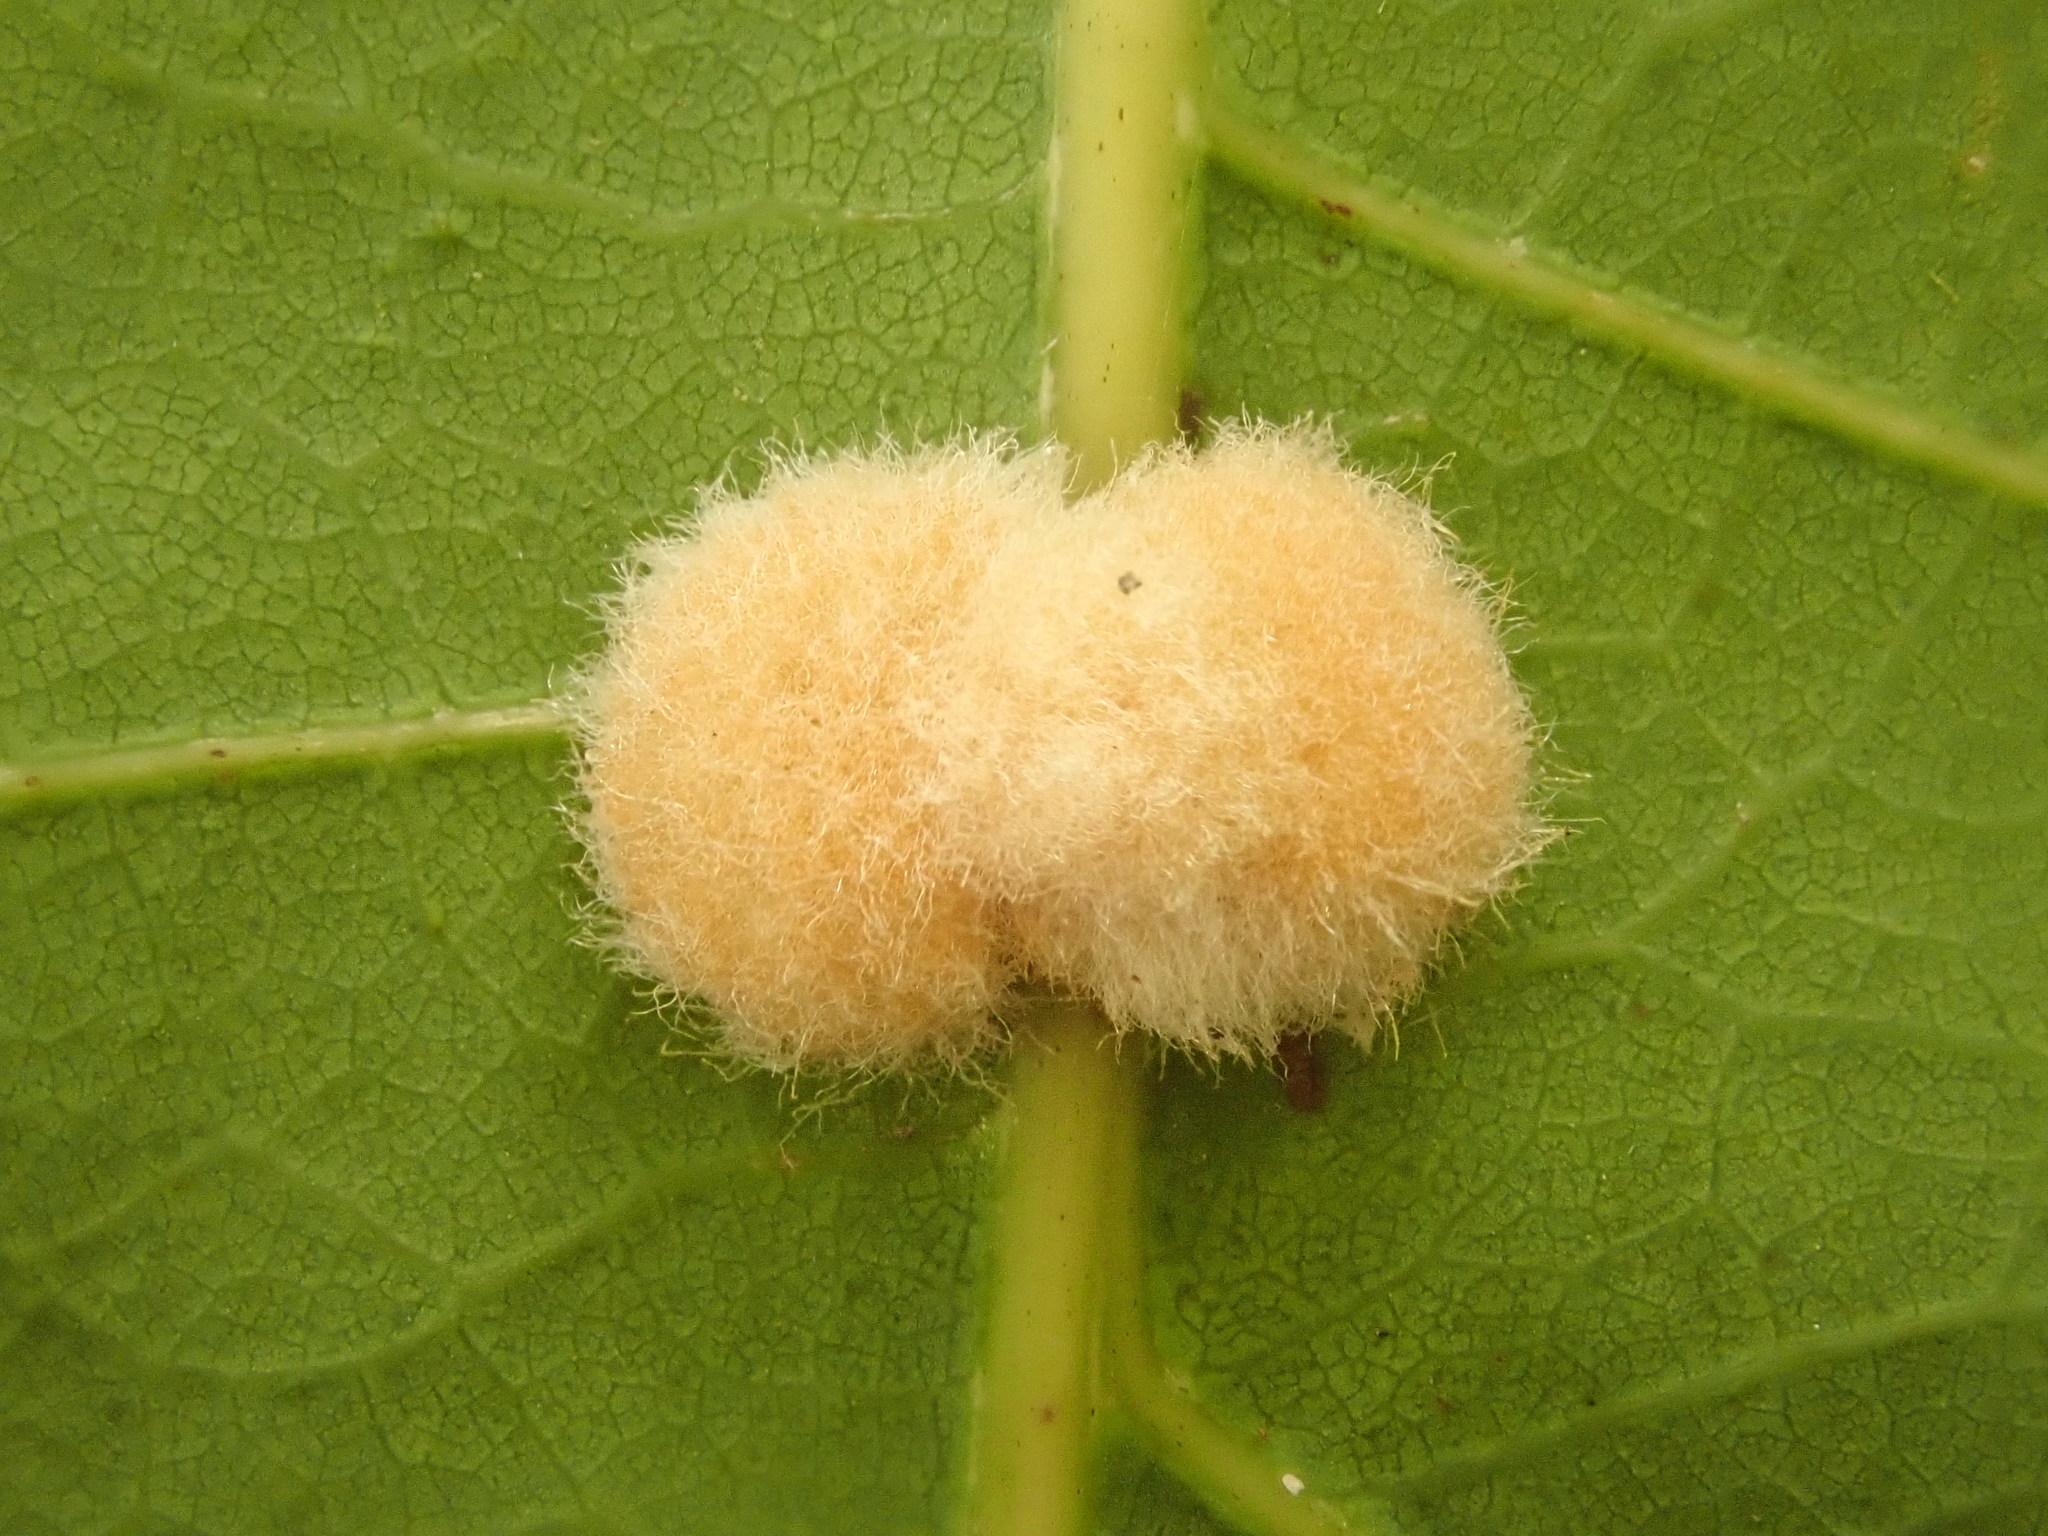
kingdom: Animalia
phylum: Arthropoda
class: Insecta
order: Hymenoptera
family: Cynipidae
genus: Callirhytis
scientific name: Callirhytis
